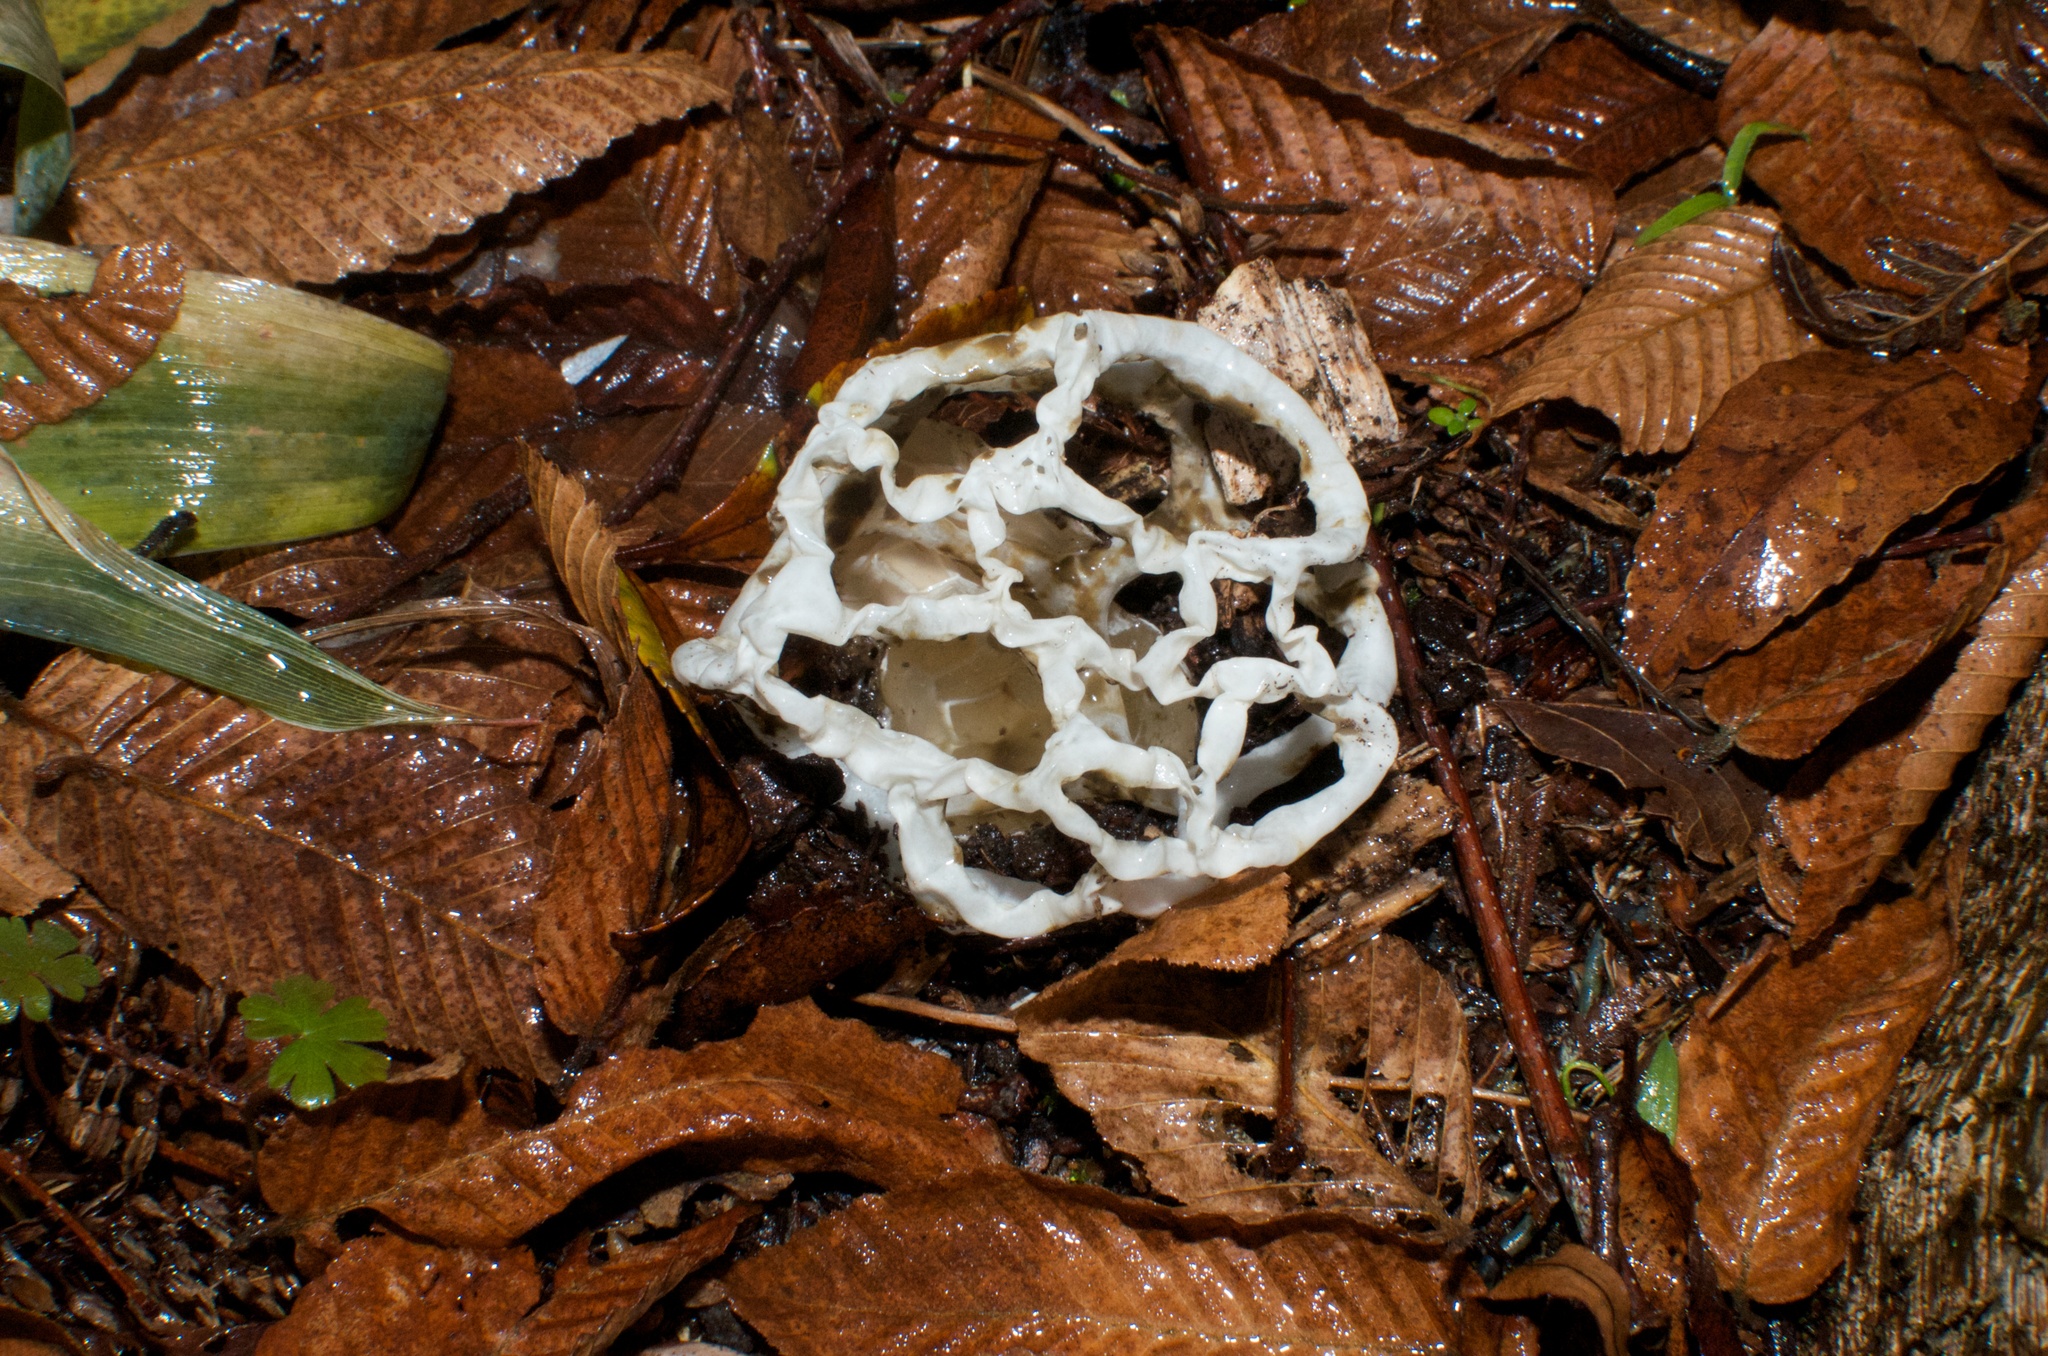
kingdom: Fungi
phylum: Basidiomycota
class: Agaricomycetes
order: Phallales
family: Phallaceae
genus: Ileodictyon
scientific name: Ileodictyon cibarium
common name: Basket fungus
